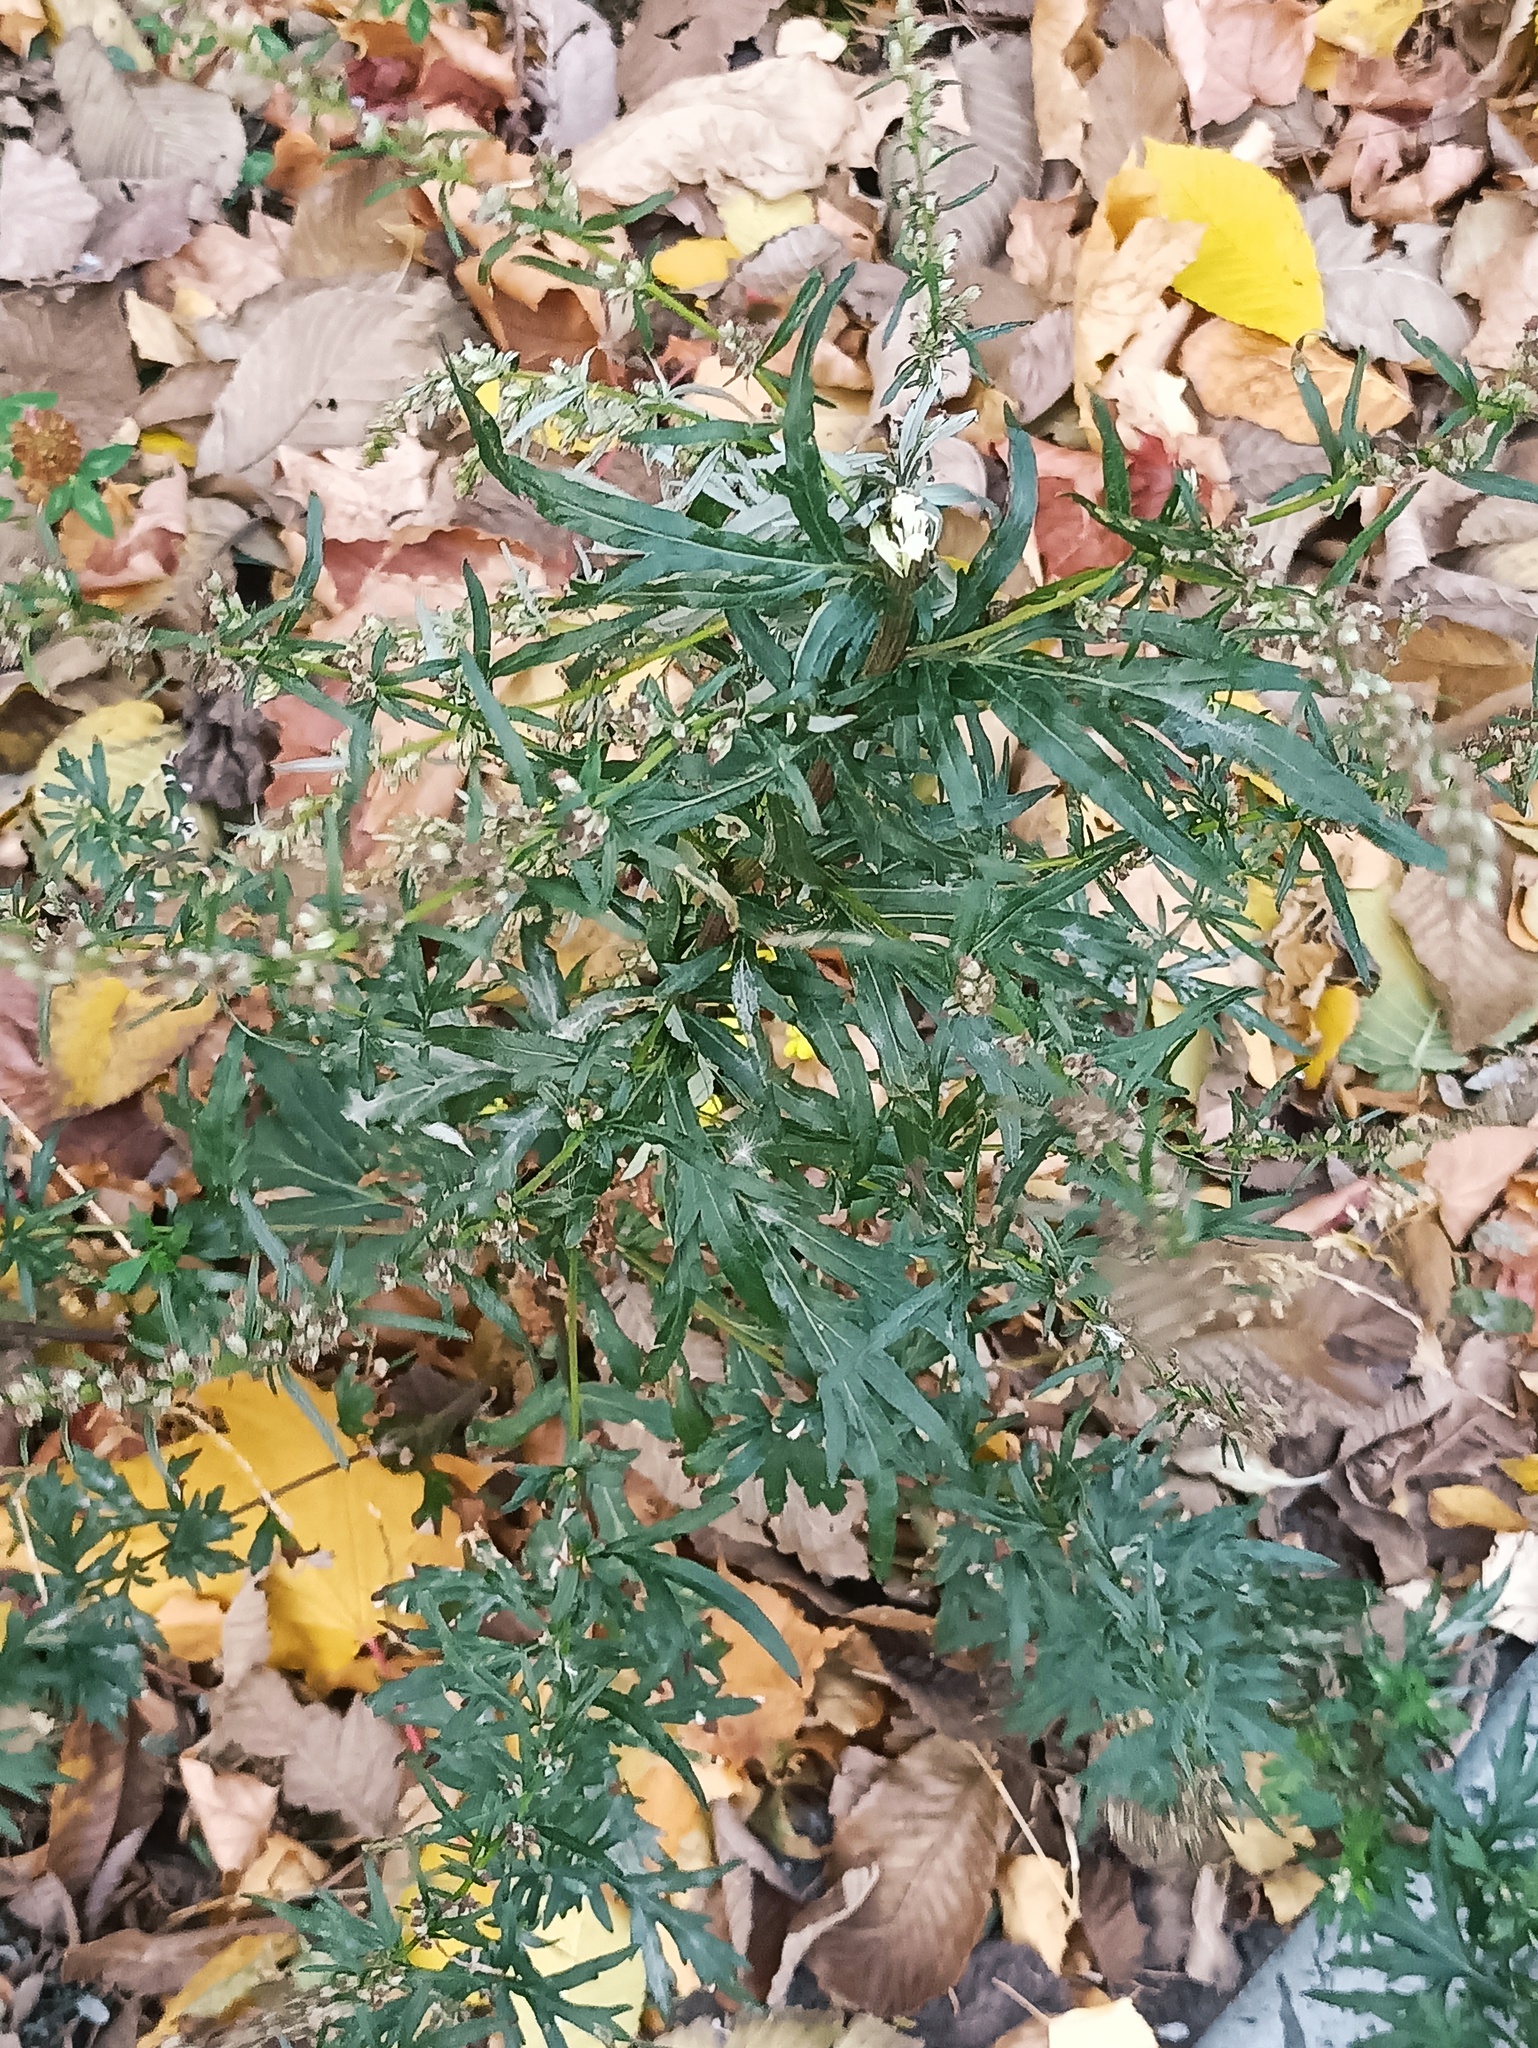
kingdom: Plantae
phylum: Tracheophyta
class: Magnoliopsida
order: Asterales
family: Asteraceae
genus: Artemisia
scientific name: Artemisia vulgaris
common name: Mugwort
